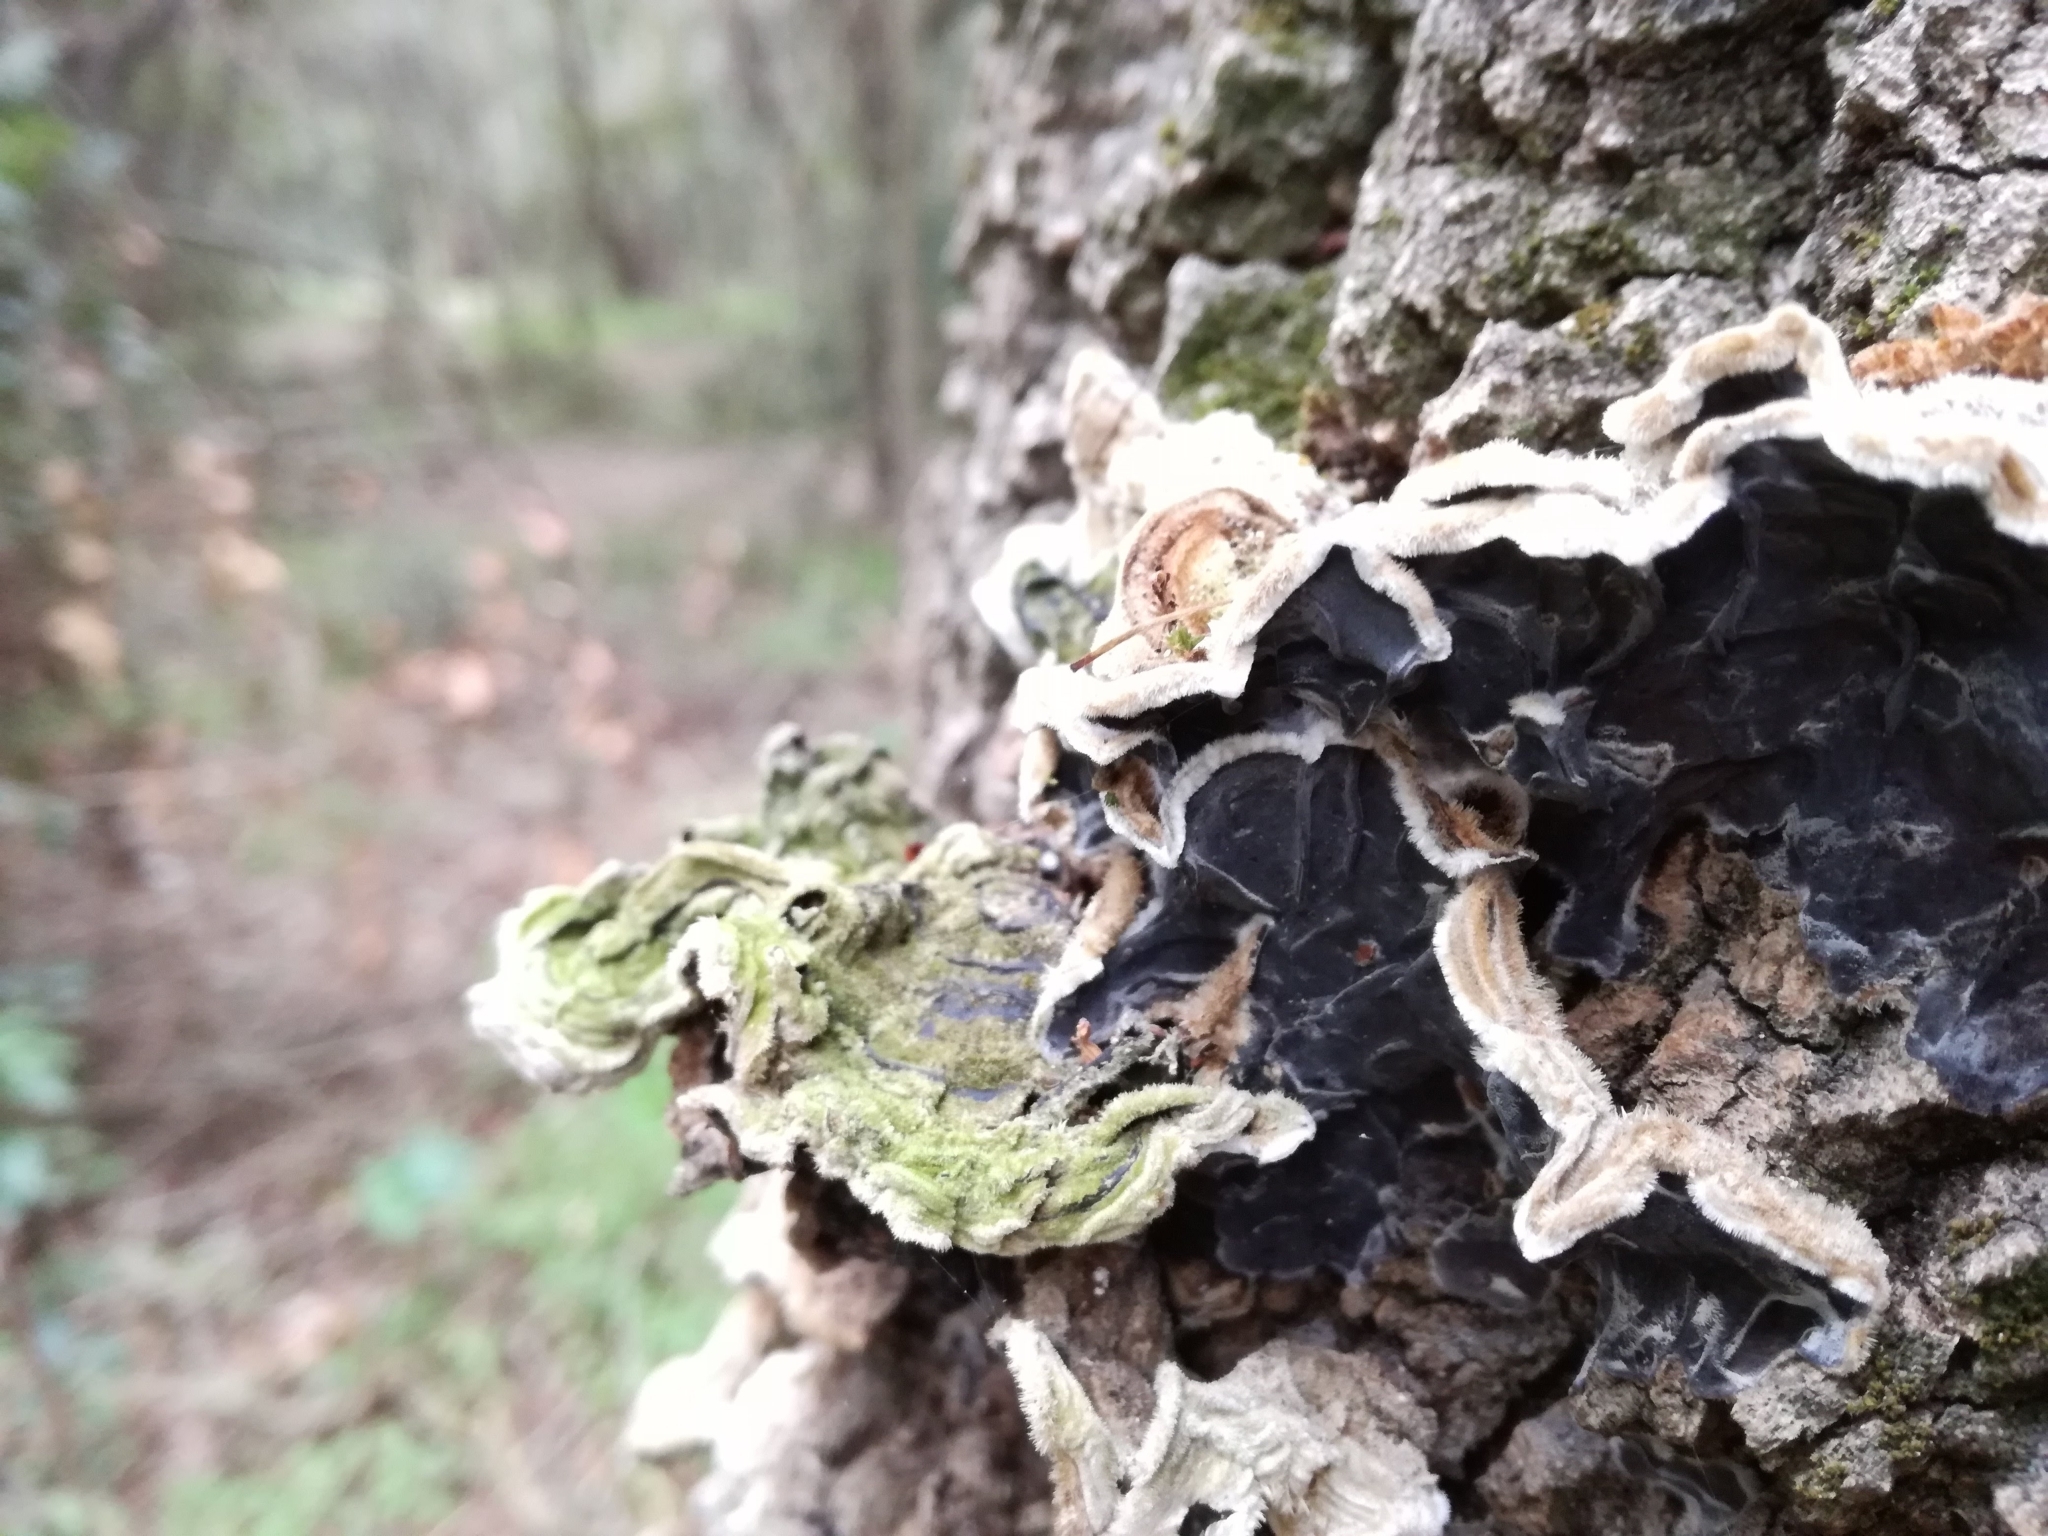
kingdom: Fungi
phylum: Basidiomycota
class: Agaricomycetes
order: Auriculariales
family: Auriculariaceae
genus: Auricularia
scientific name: Auricularia mesenterica
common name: Tripe fungus
